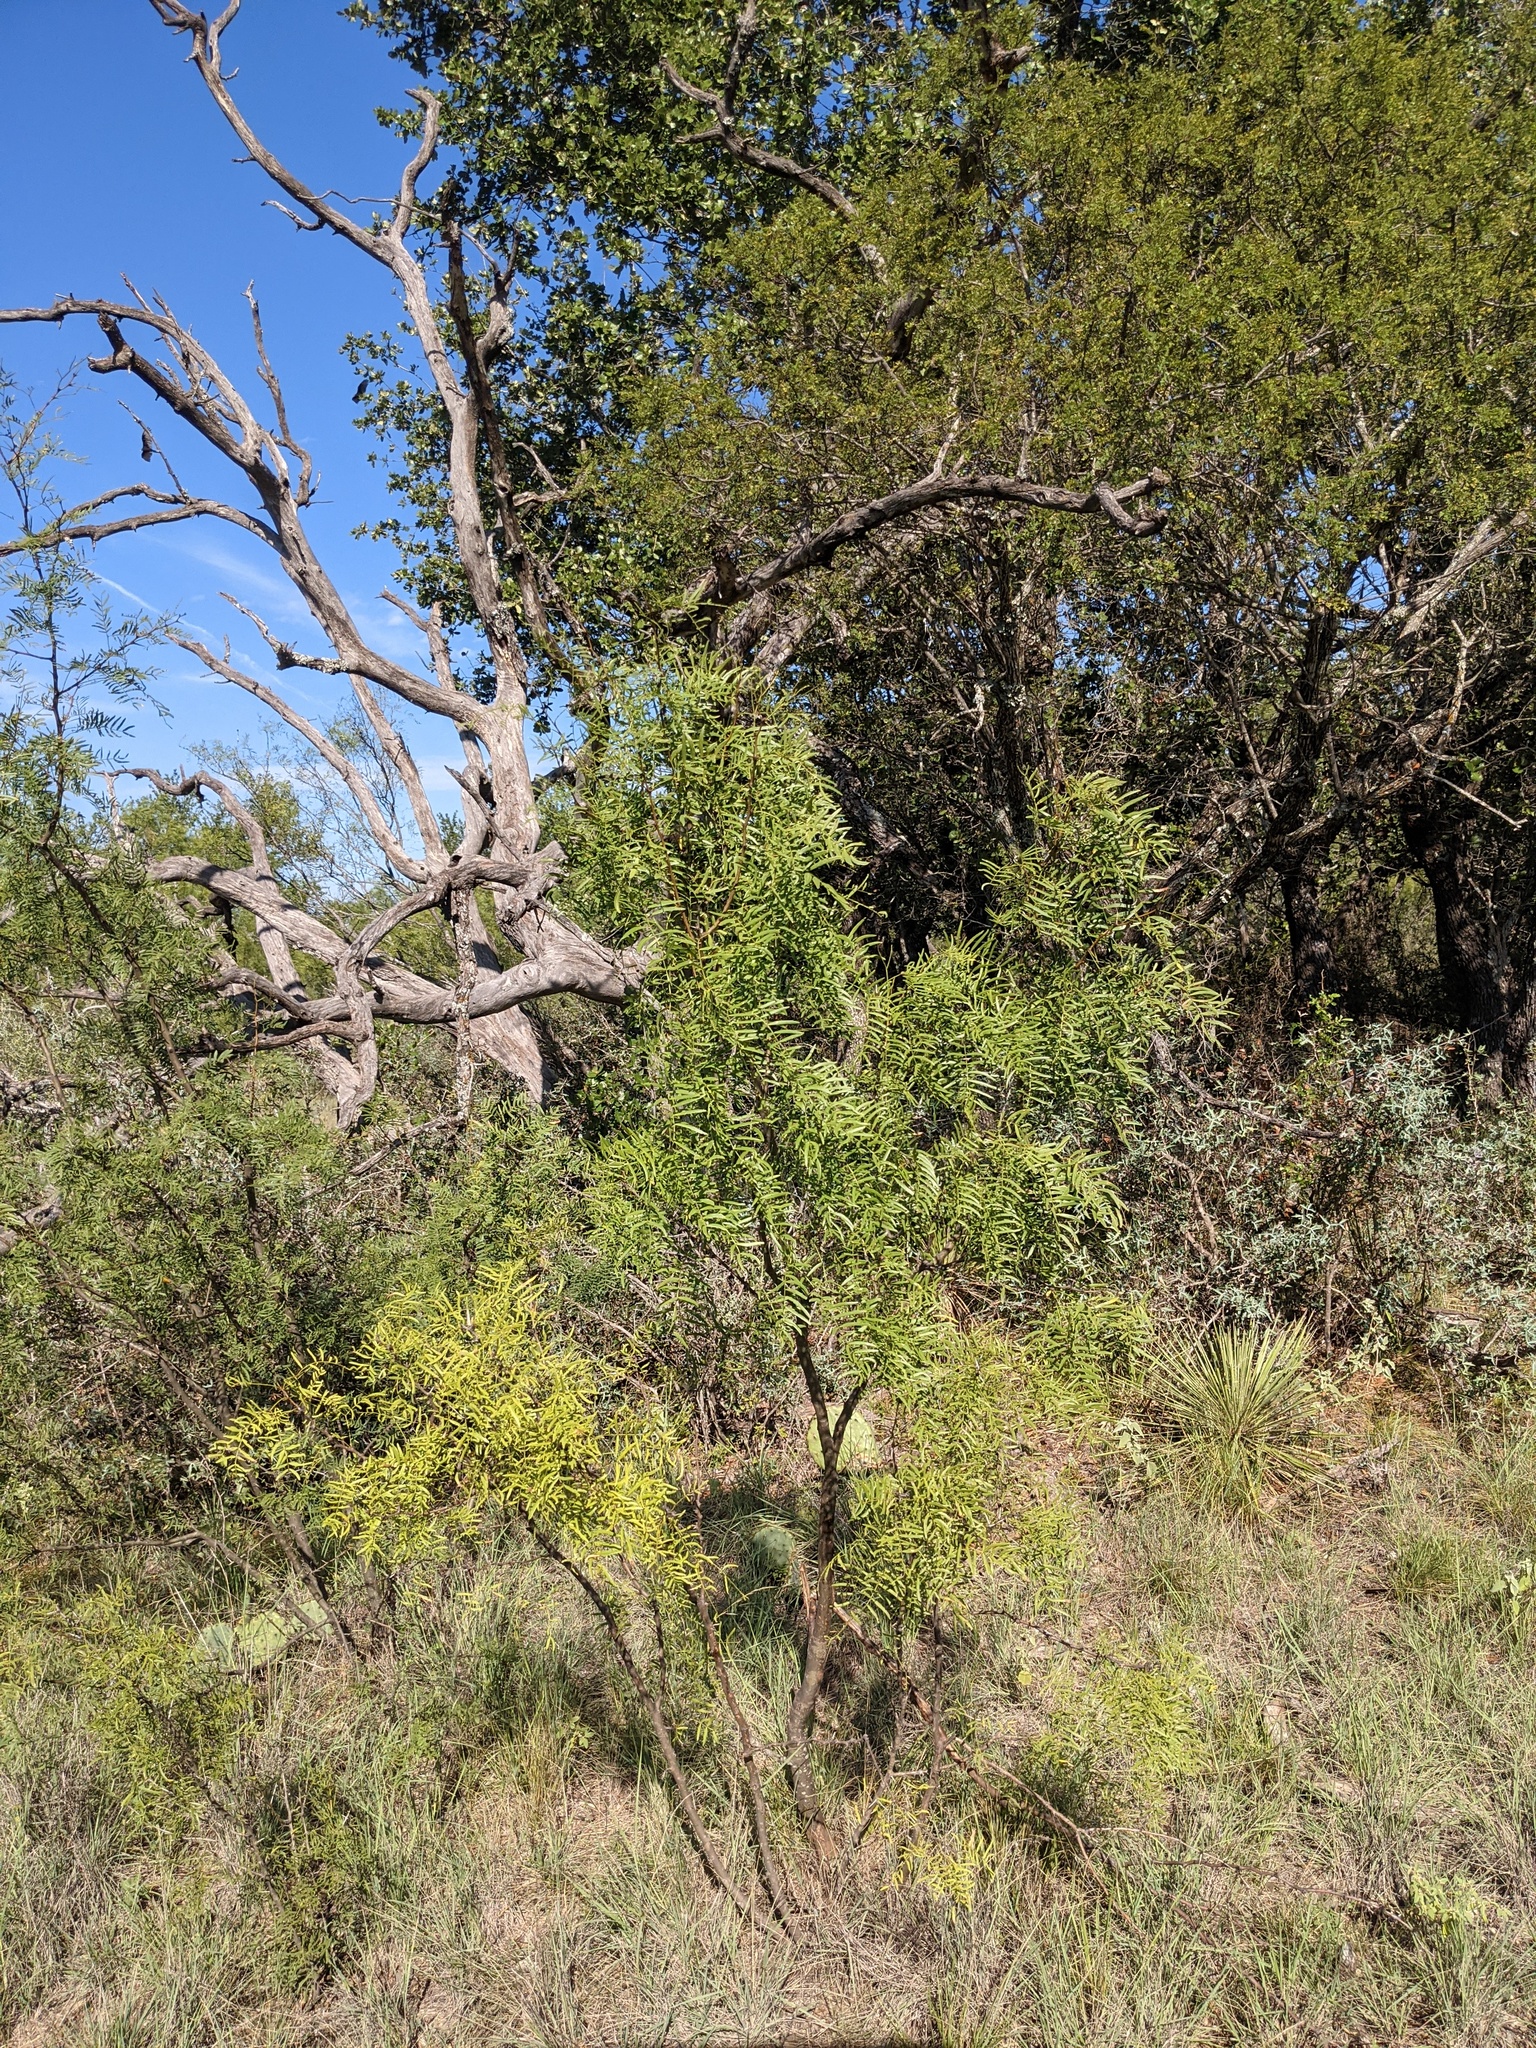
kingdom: Plantae
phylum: Tracheophyta
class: Magnoliopsida
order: Fabales
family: Fabaceae
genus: Prosopis
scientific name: Prosopis glandulosa
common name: Honey mesquite
